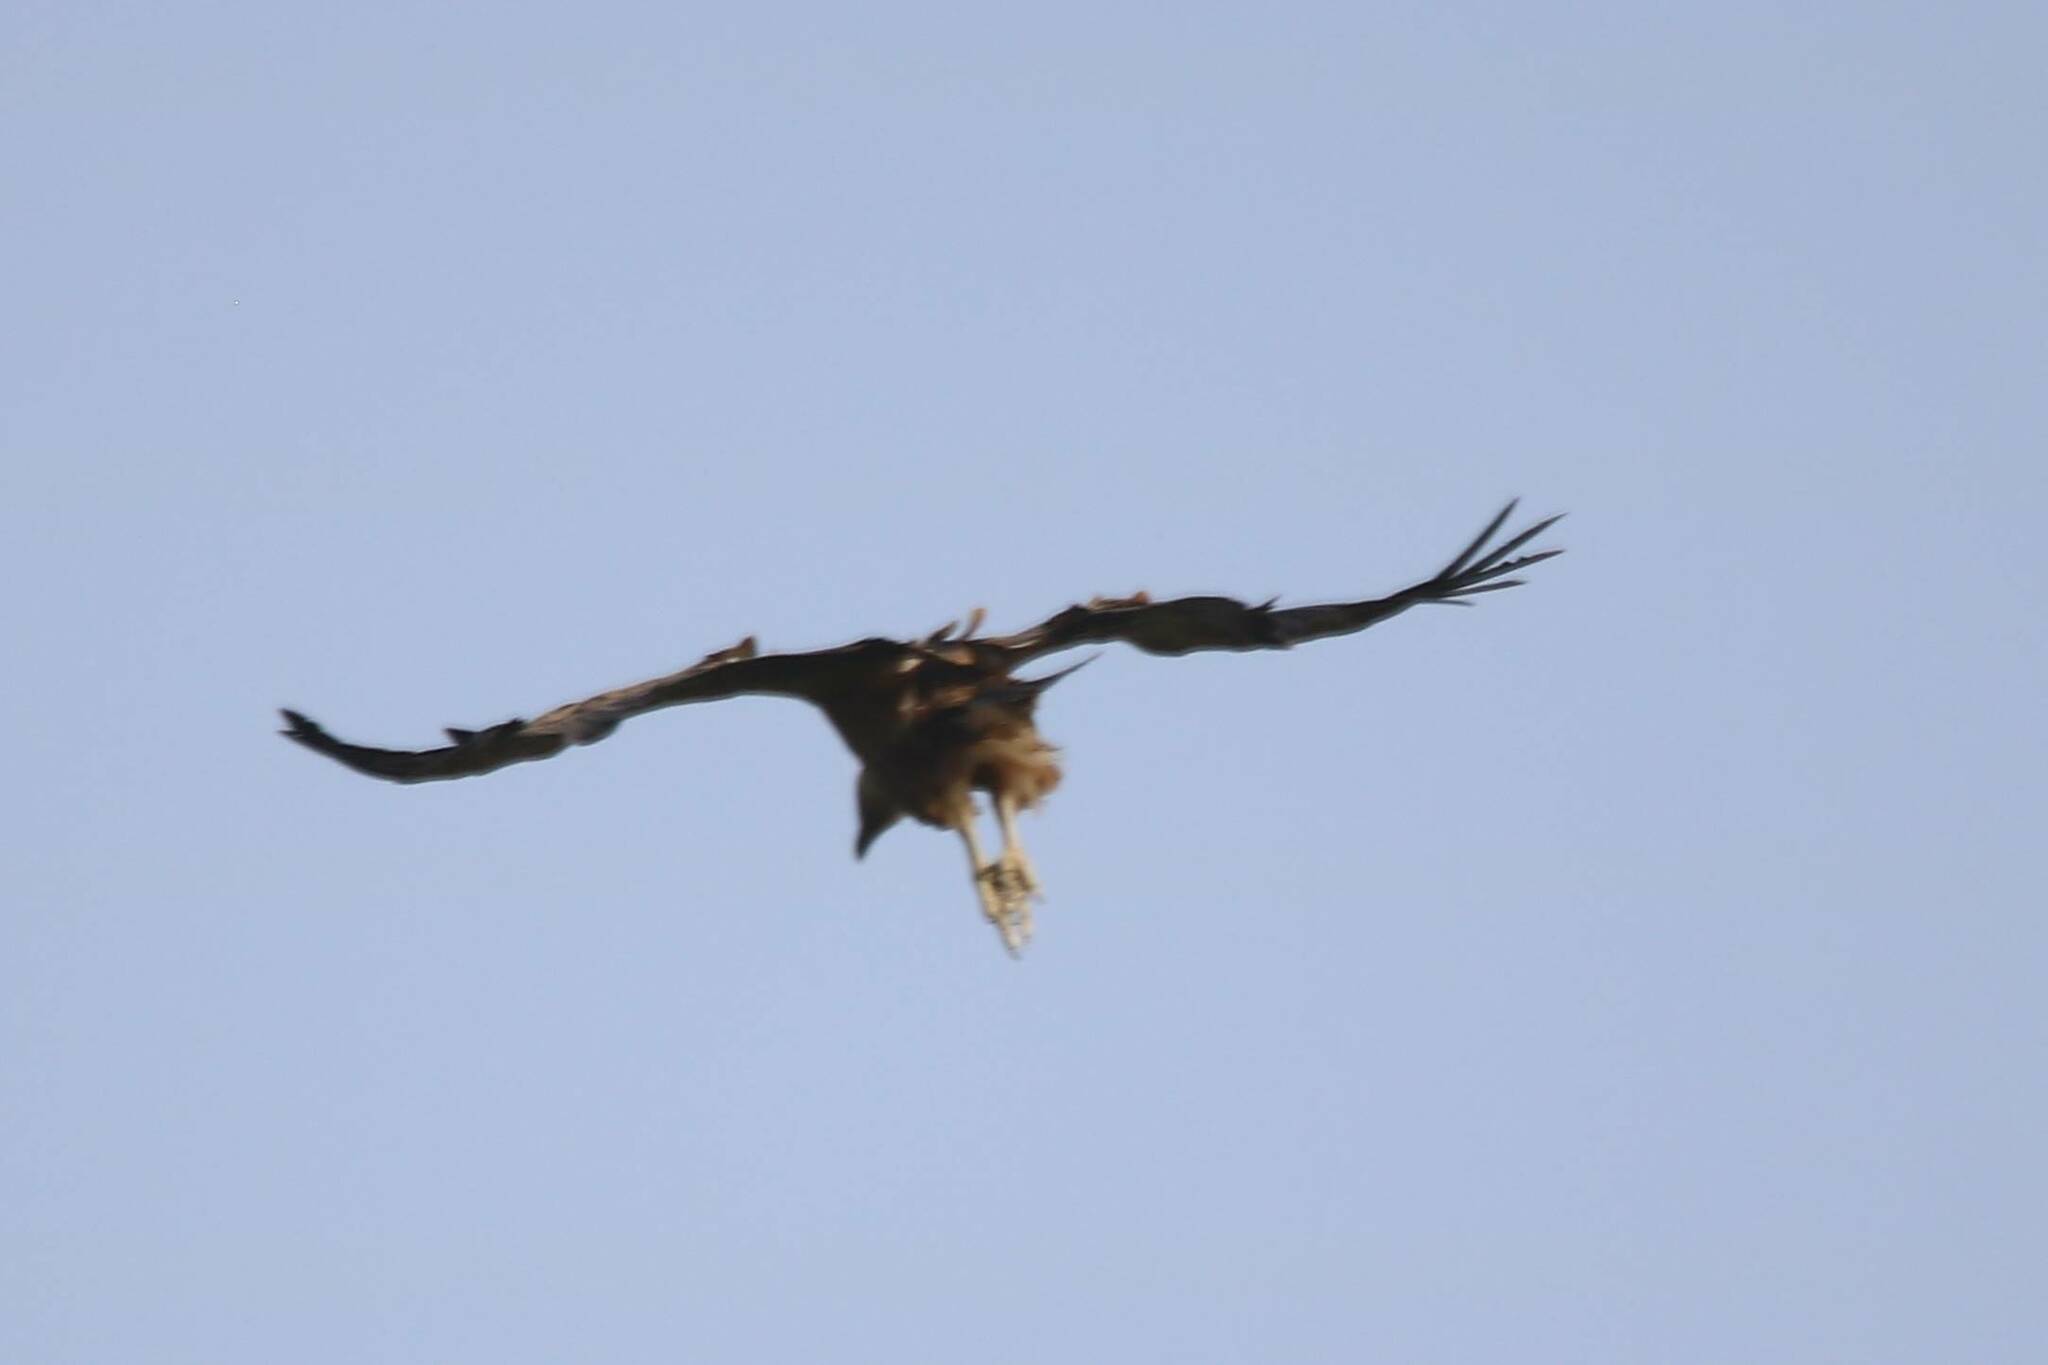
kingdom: Animalia
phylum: Chordata
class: Aves
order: Accipitriformes
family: Accipitridae
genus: Gyps
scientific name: Gyps fulvus
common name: Griffon vulture
